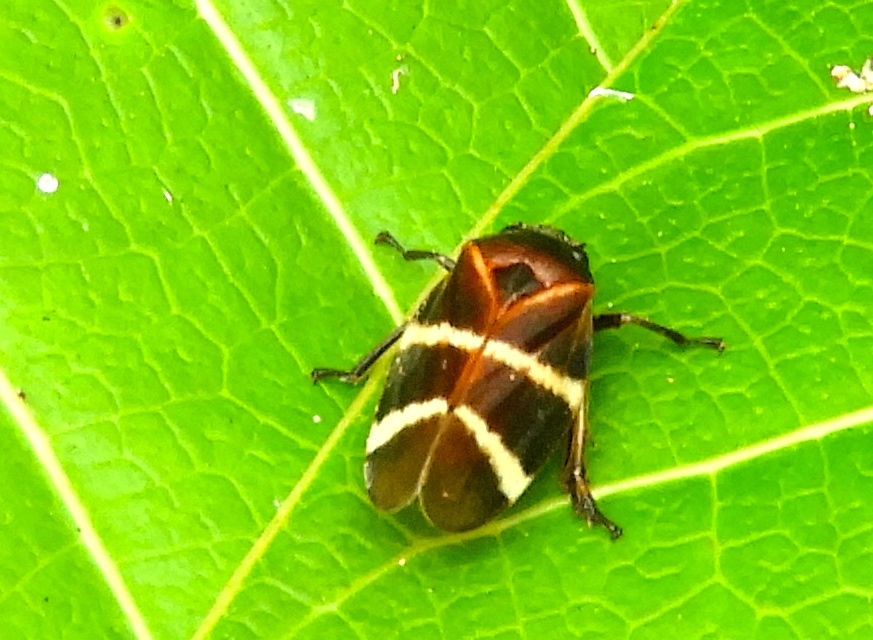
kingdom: Animalia
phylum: Arthropoda
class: Insecta
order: Hemiptera
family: Cercopidae
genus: Aeneolamia
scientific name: Aeneolamia contigua
